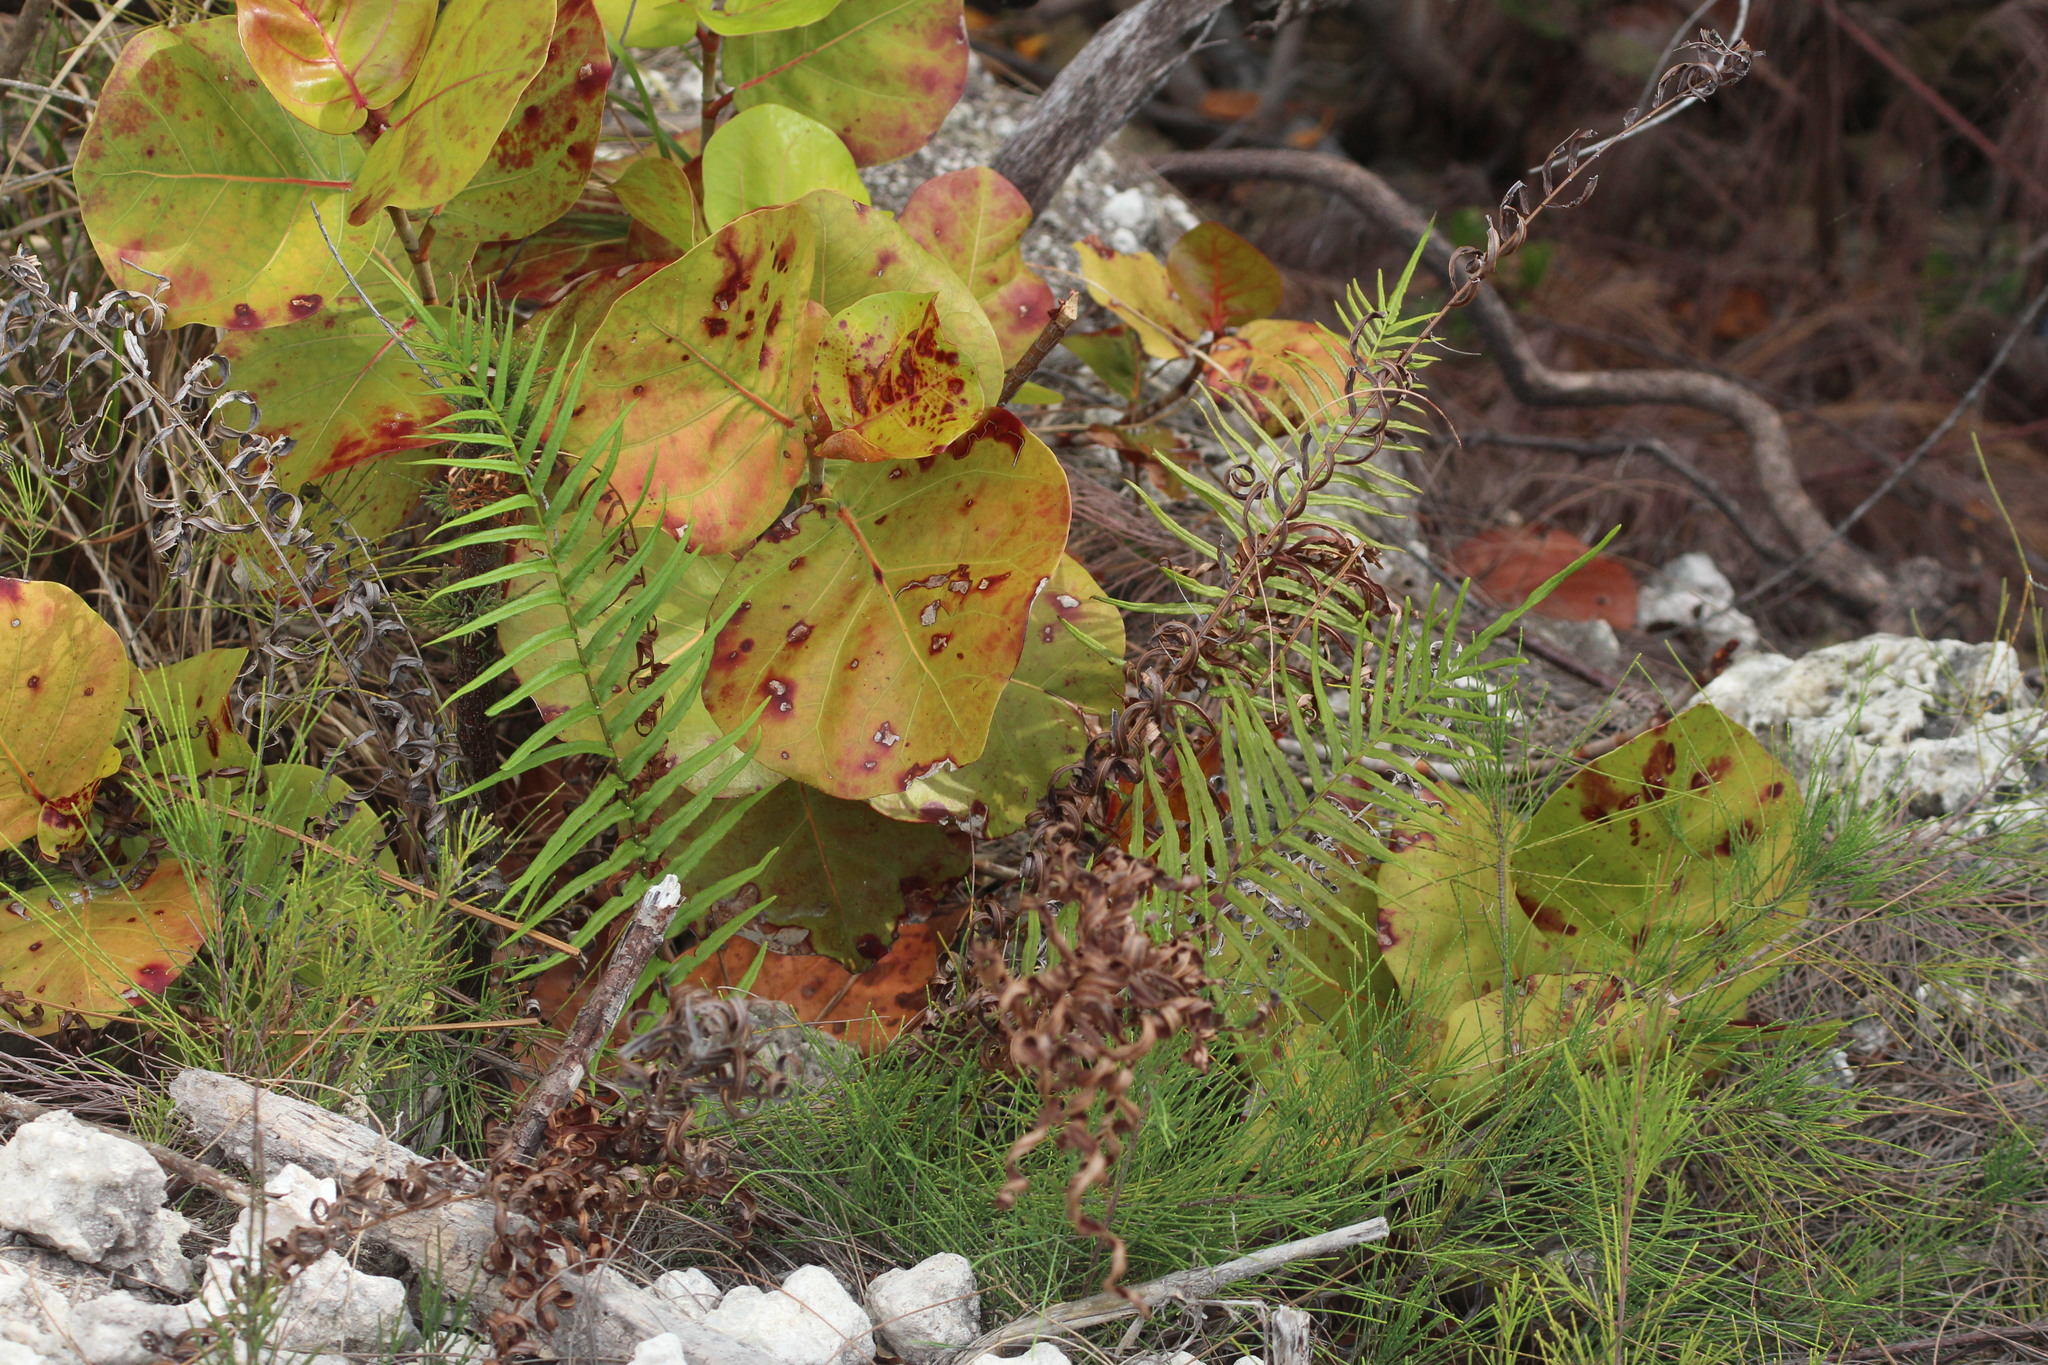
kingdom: Plantae
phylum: Tracheophyta
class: Polypodiopsida
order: Polypodiales
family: Pteridaceae
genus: Pteris
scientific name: Pteris vittata
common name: Ladder brake
